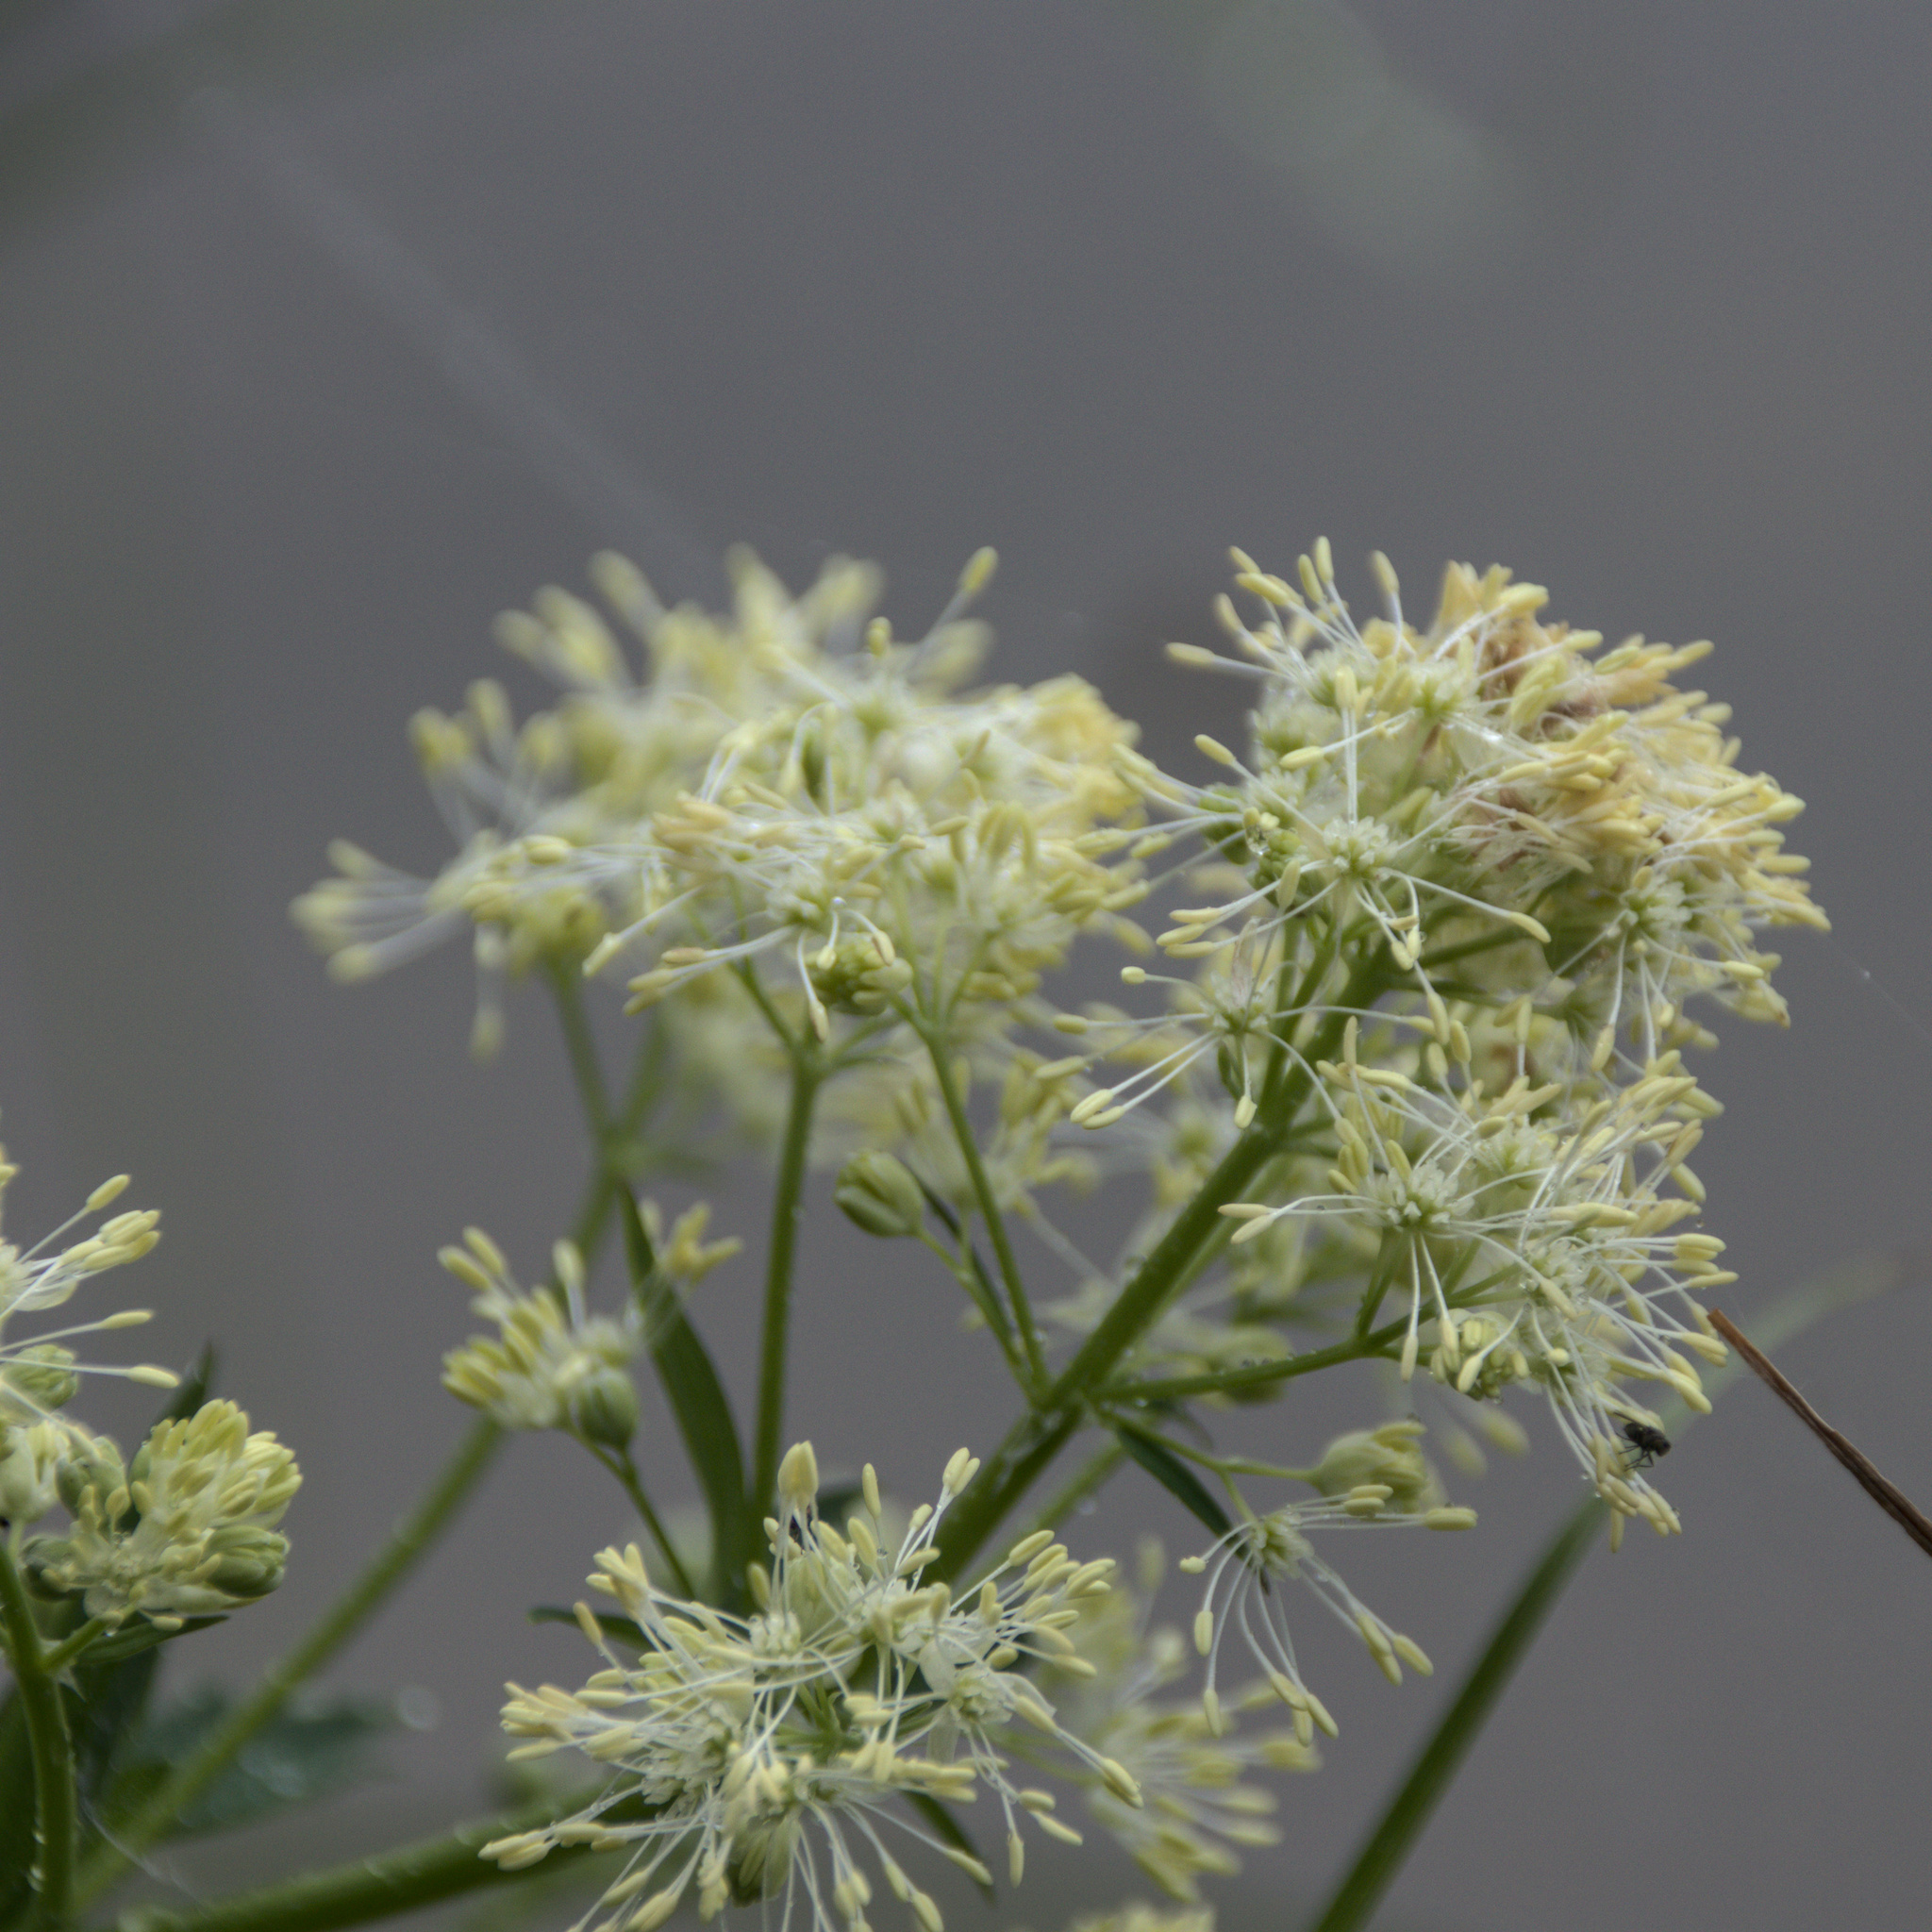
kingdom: Plantae
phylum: Tracheophyta
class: Magnoliopsida
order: Ranunculales
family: Ranunculaceae
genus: Thalictrum
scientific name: Thalictrum flavum
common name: Common meadow-rue
